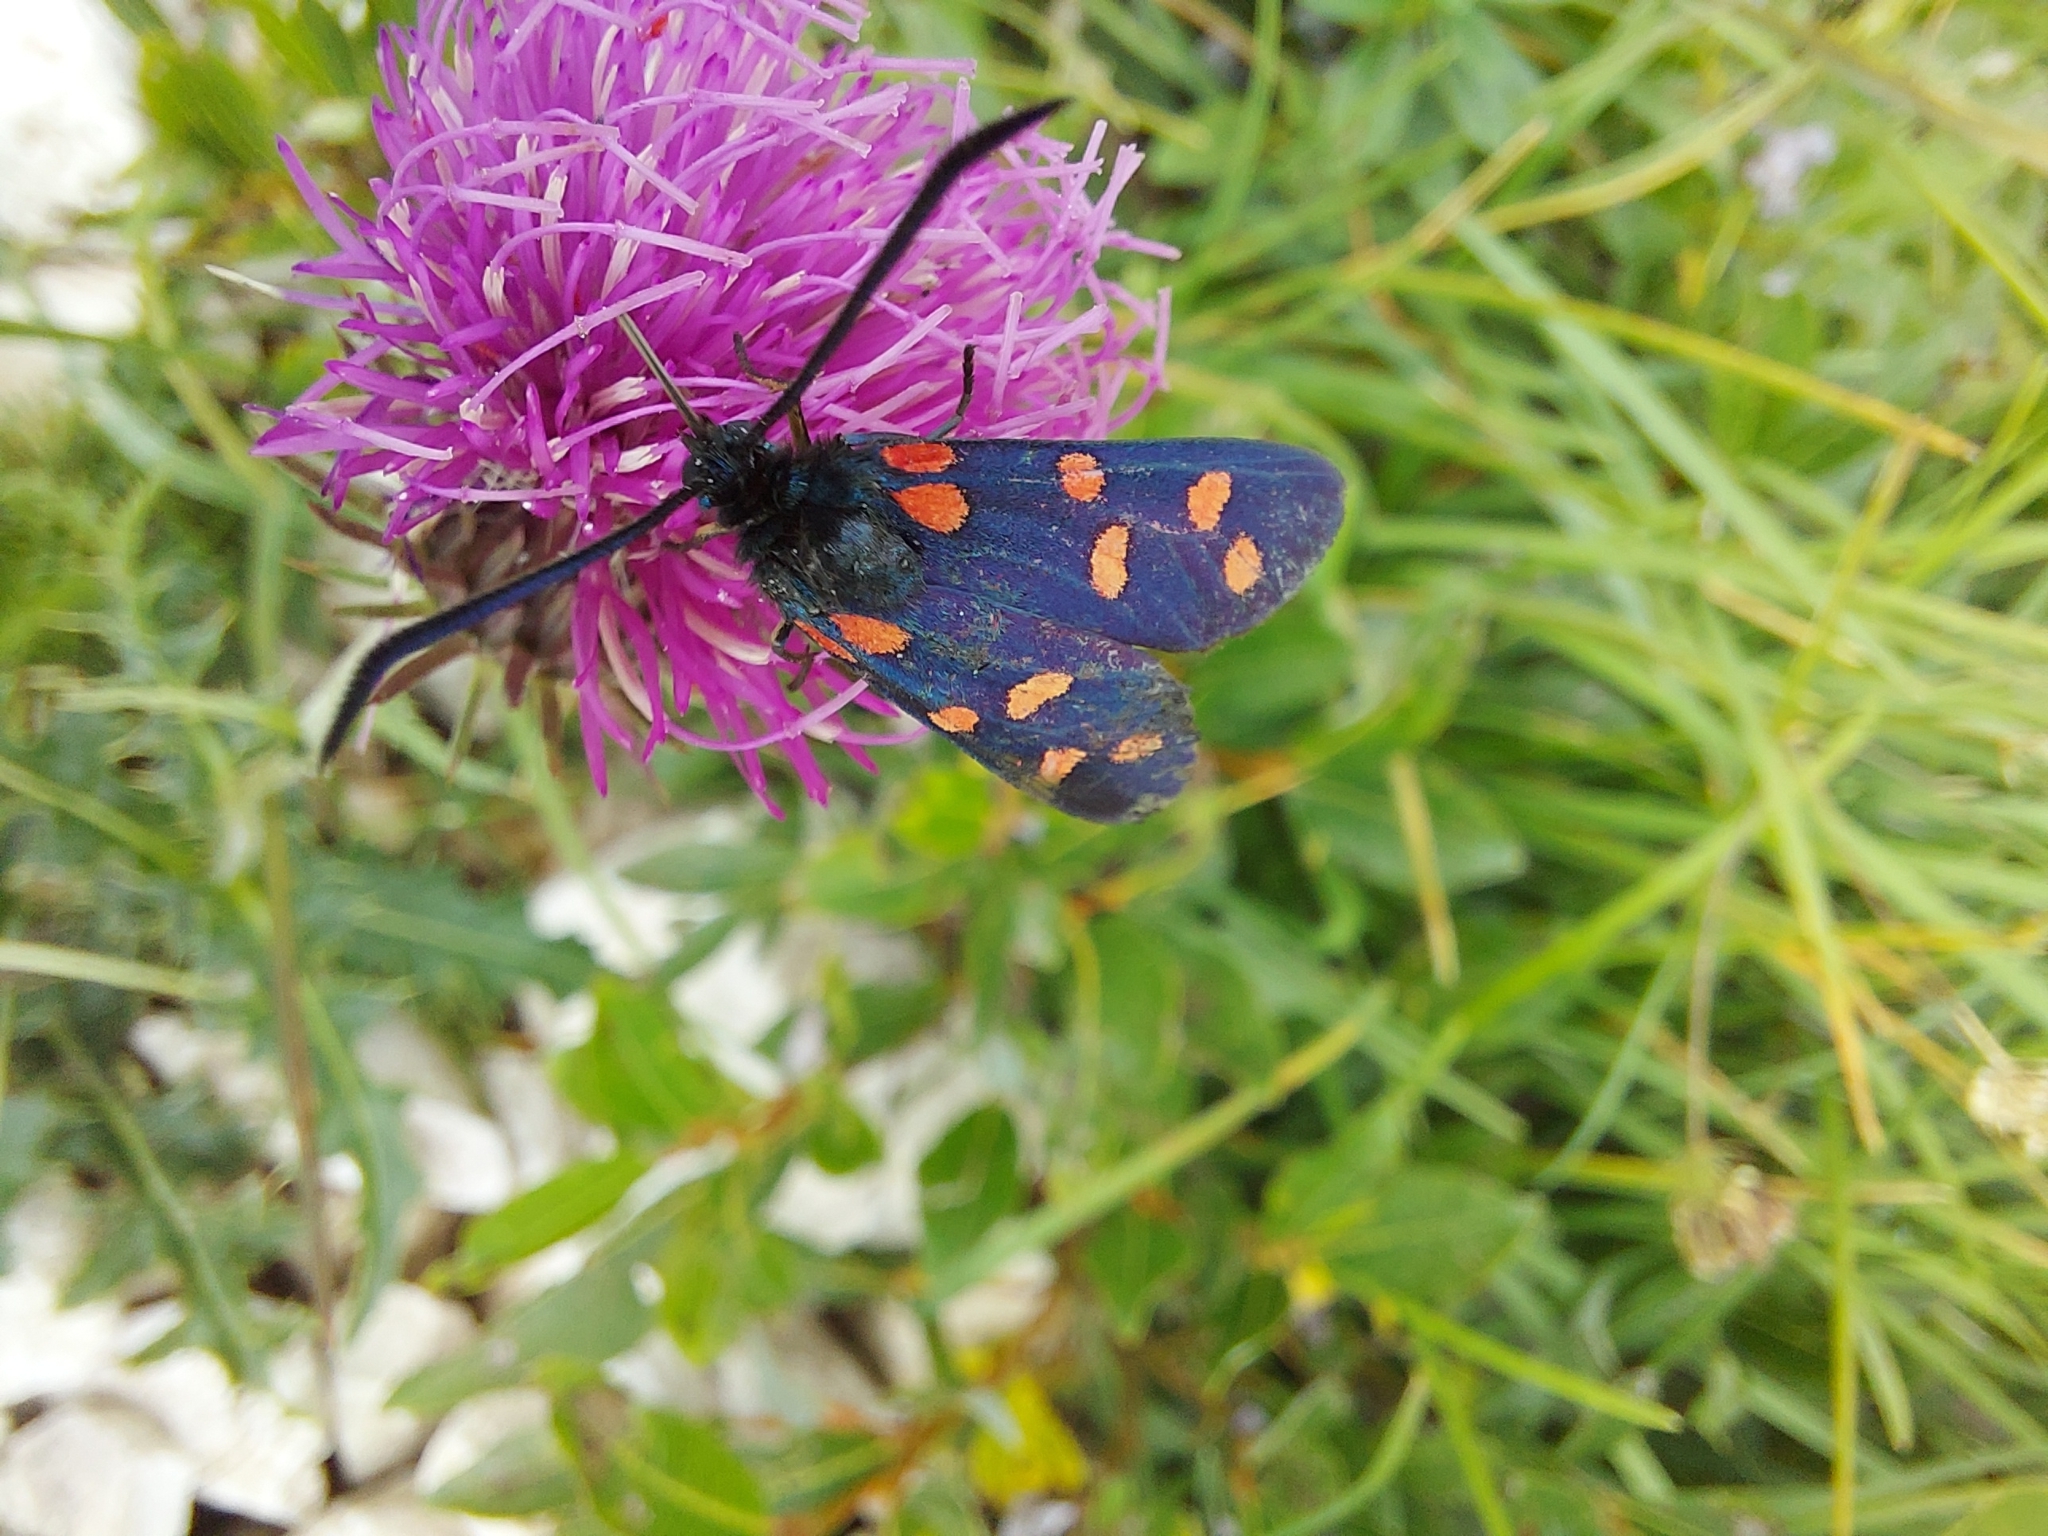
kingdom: Animalia
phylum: Arthropoda
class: Insecta
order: Lepidoptera
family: Zygaenidae
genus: Zygaena
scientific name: Zygaena transalpina
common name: Southern six spot burnet
